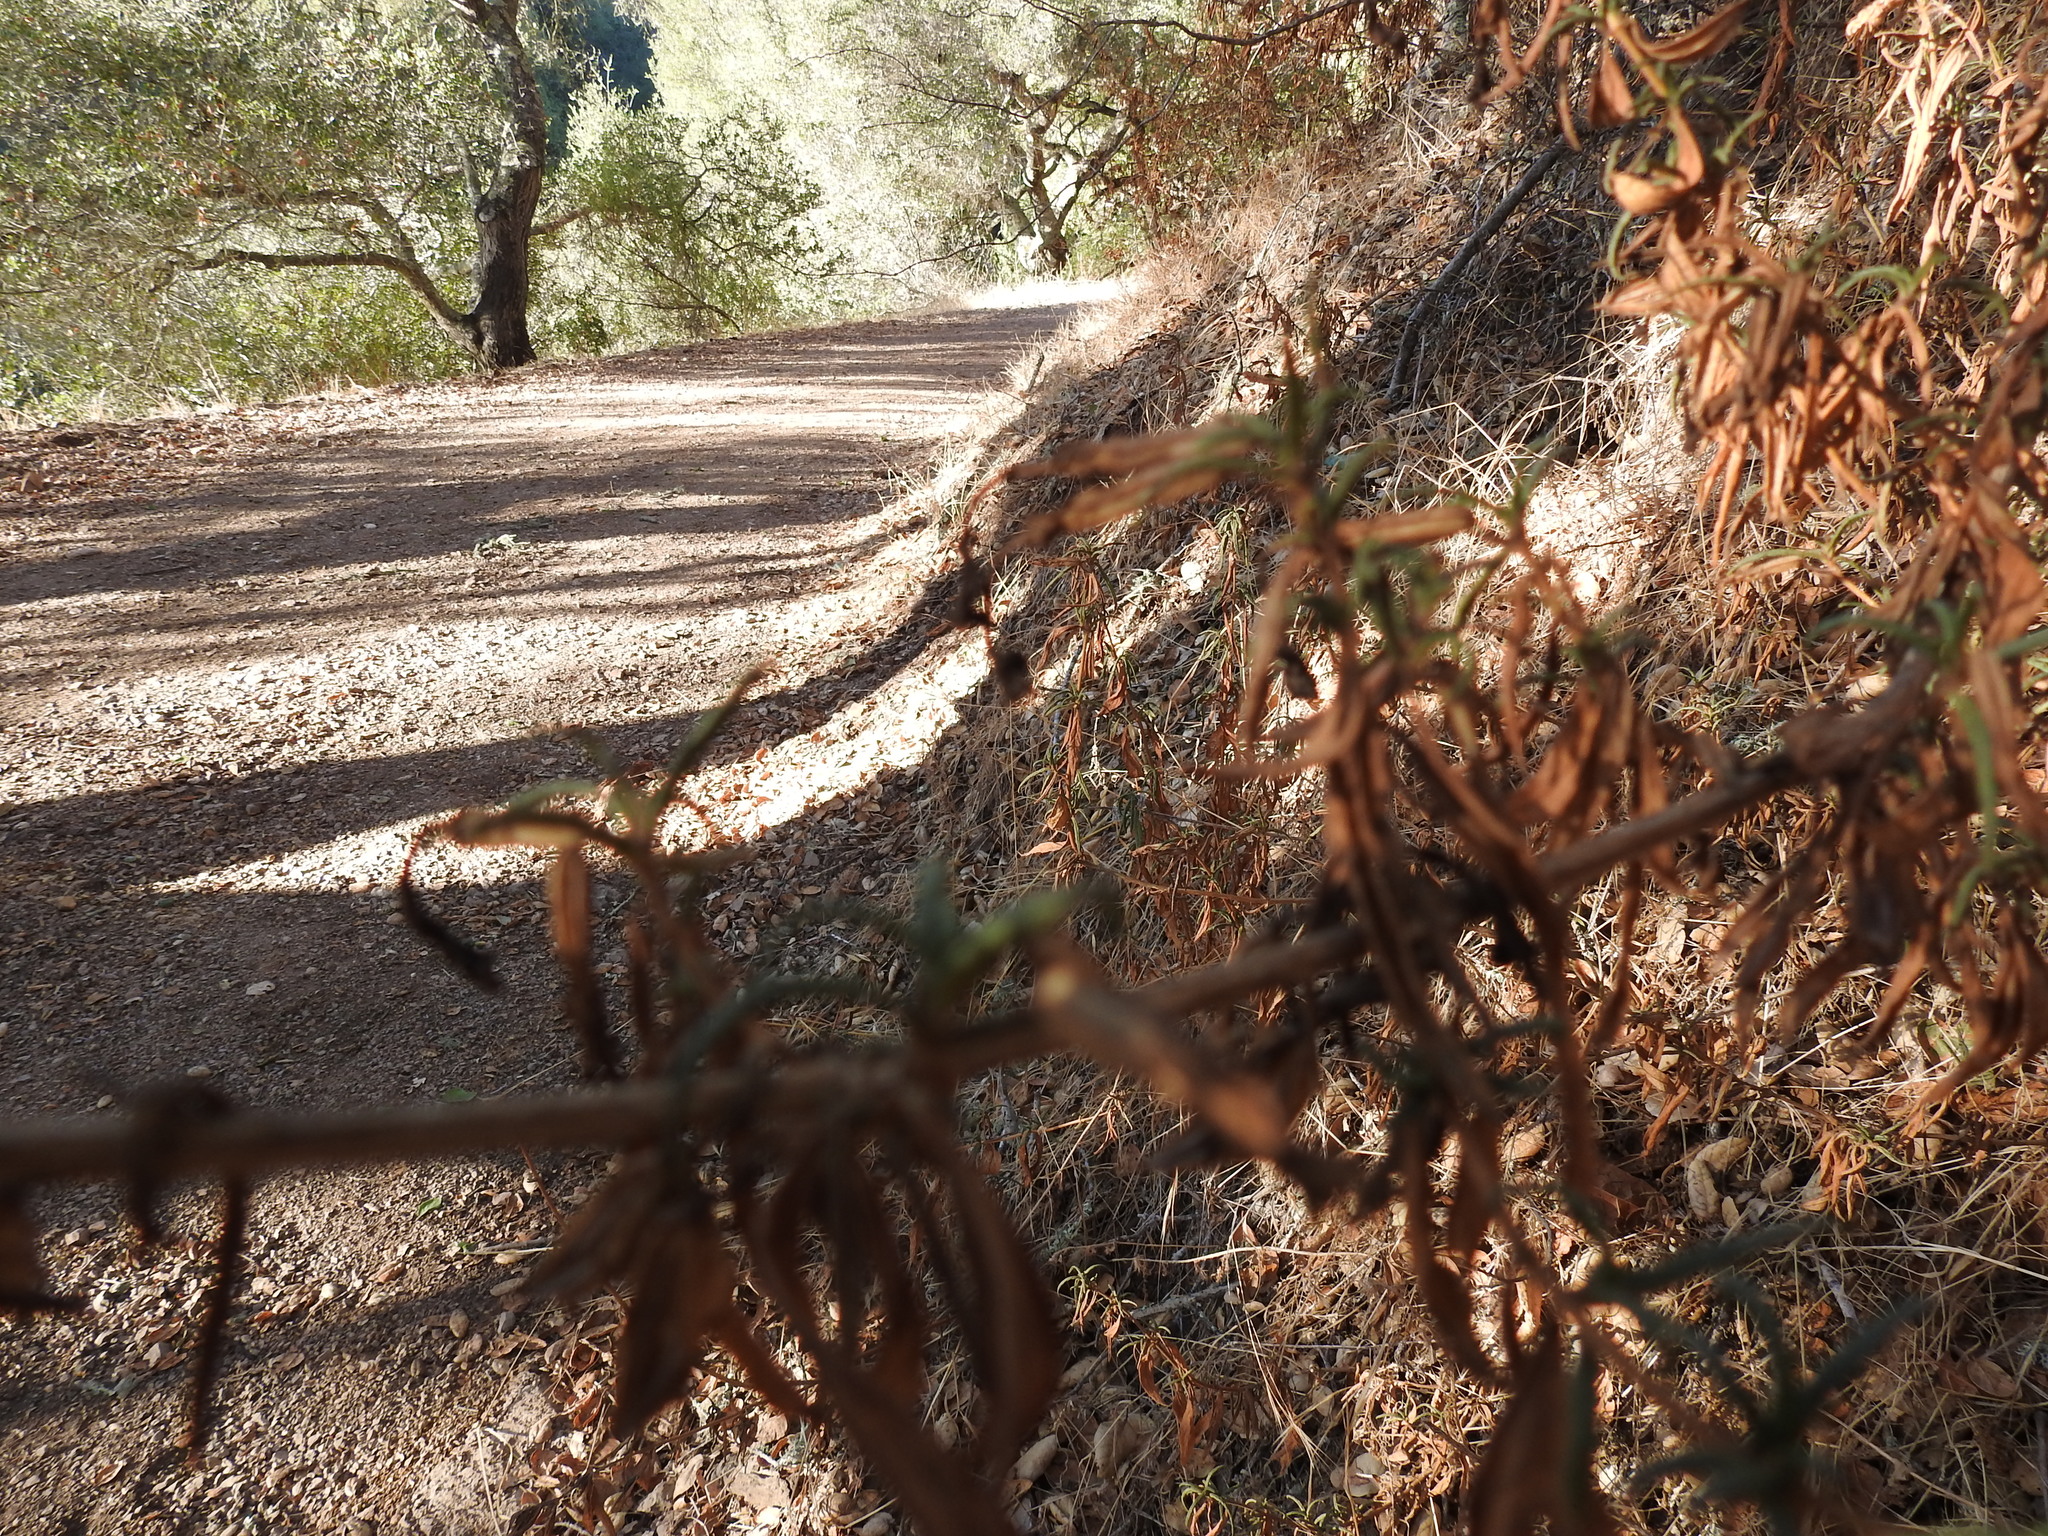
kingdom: Plantae
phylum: Tracheophyta
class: Magnoliopsida
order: Lamiales
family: Phrymaceae
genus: Diplacus
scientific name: Diplacus aurantiacus
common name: Bush monkey-flower
